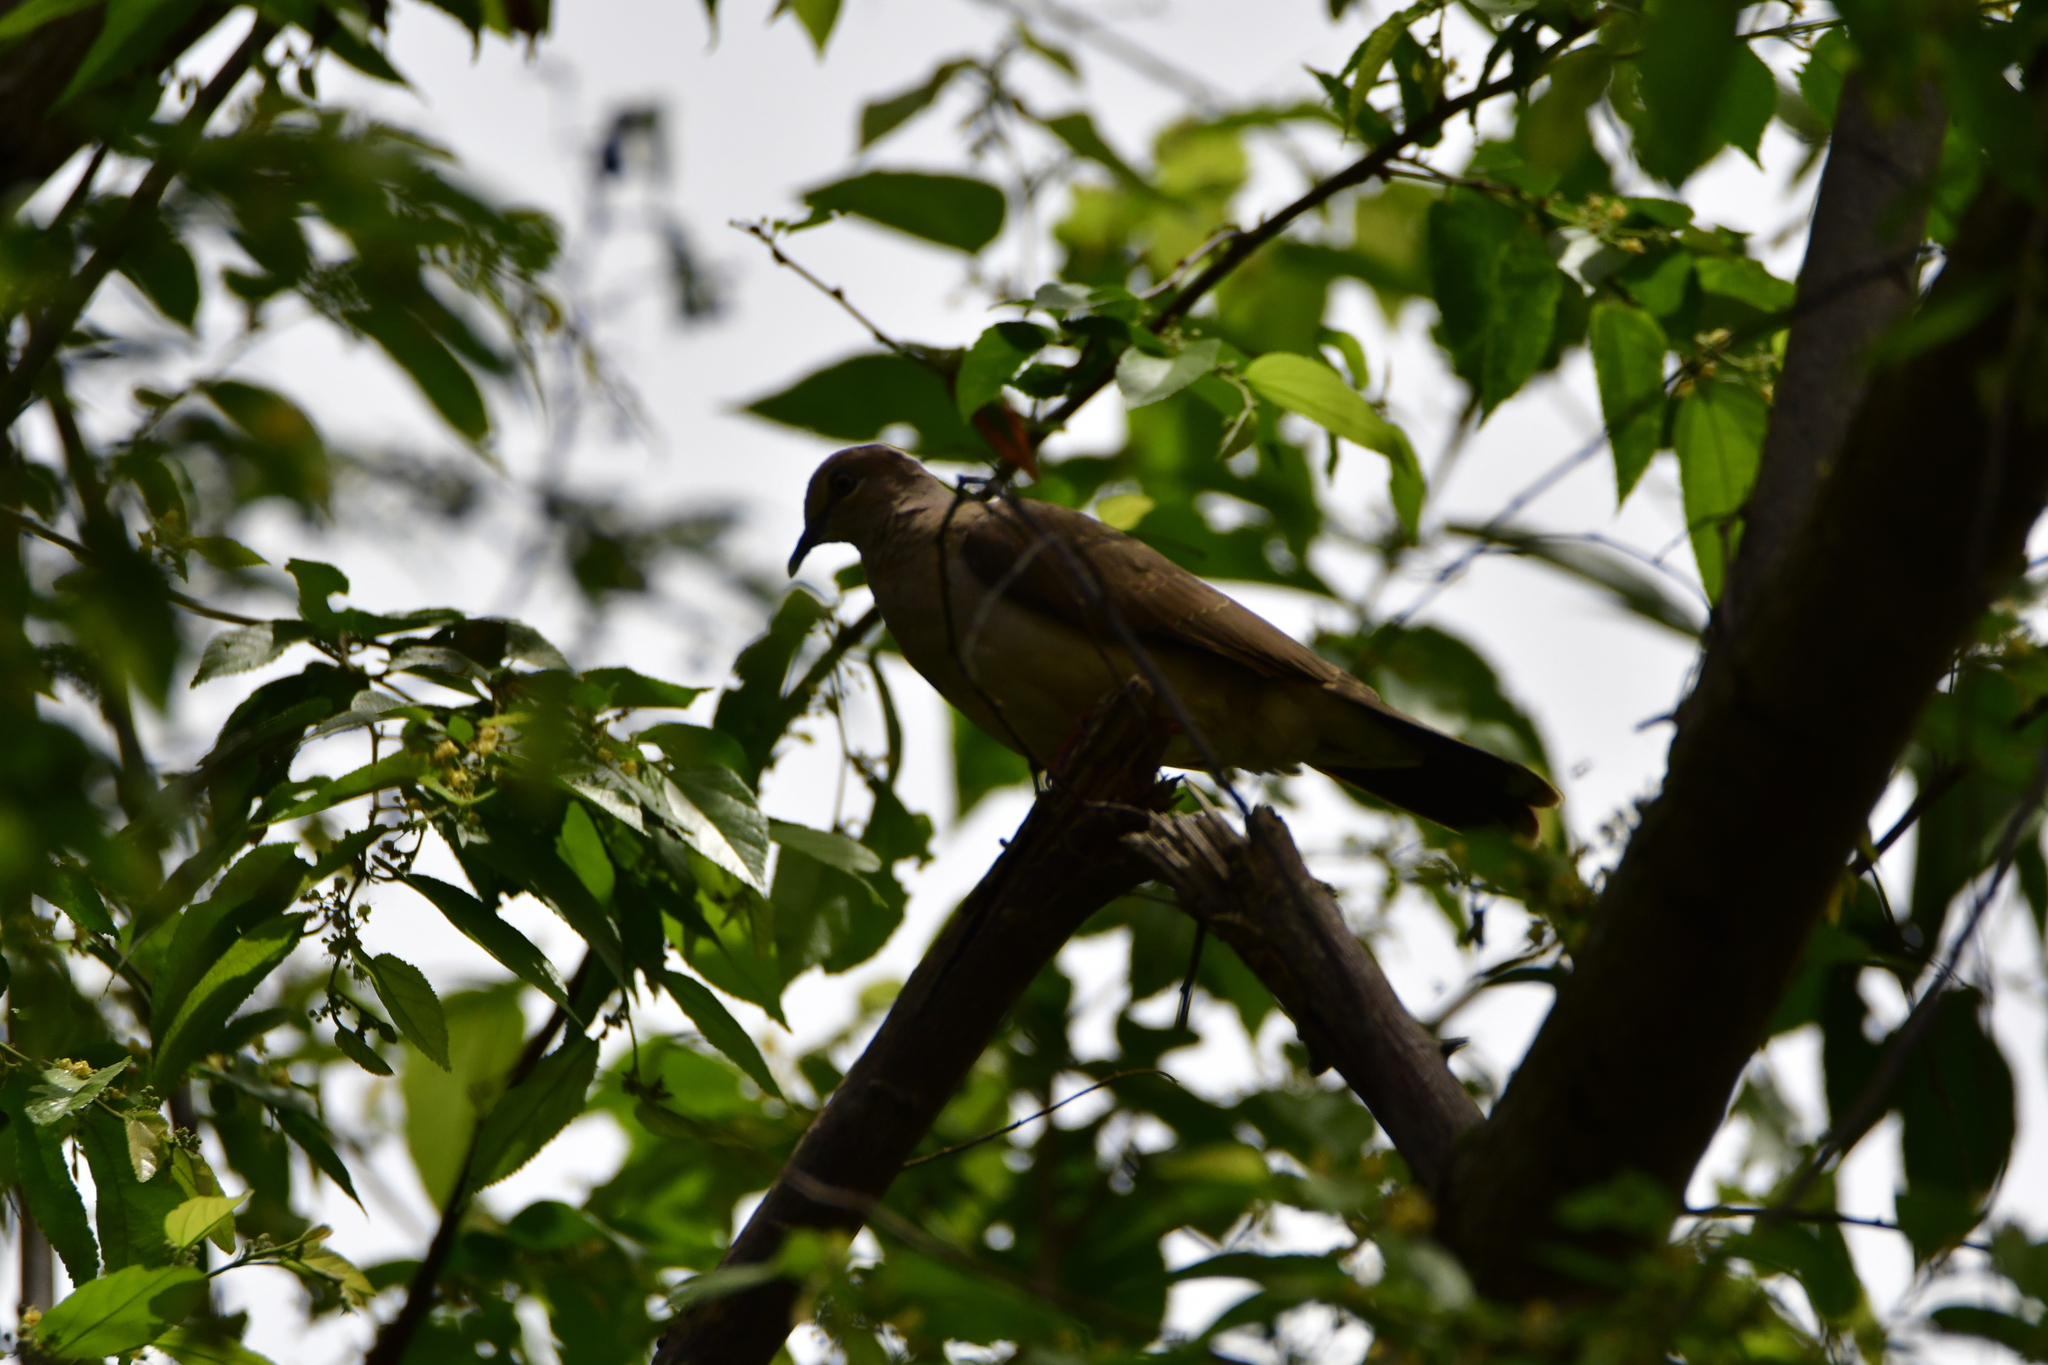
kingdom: Animalia
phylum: Chordata
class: Aves
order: Columbiformes
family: Columbidae
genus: Leptotila
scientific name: Leptotila verreauxi
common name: White-tipped dove
